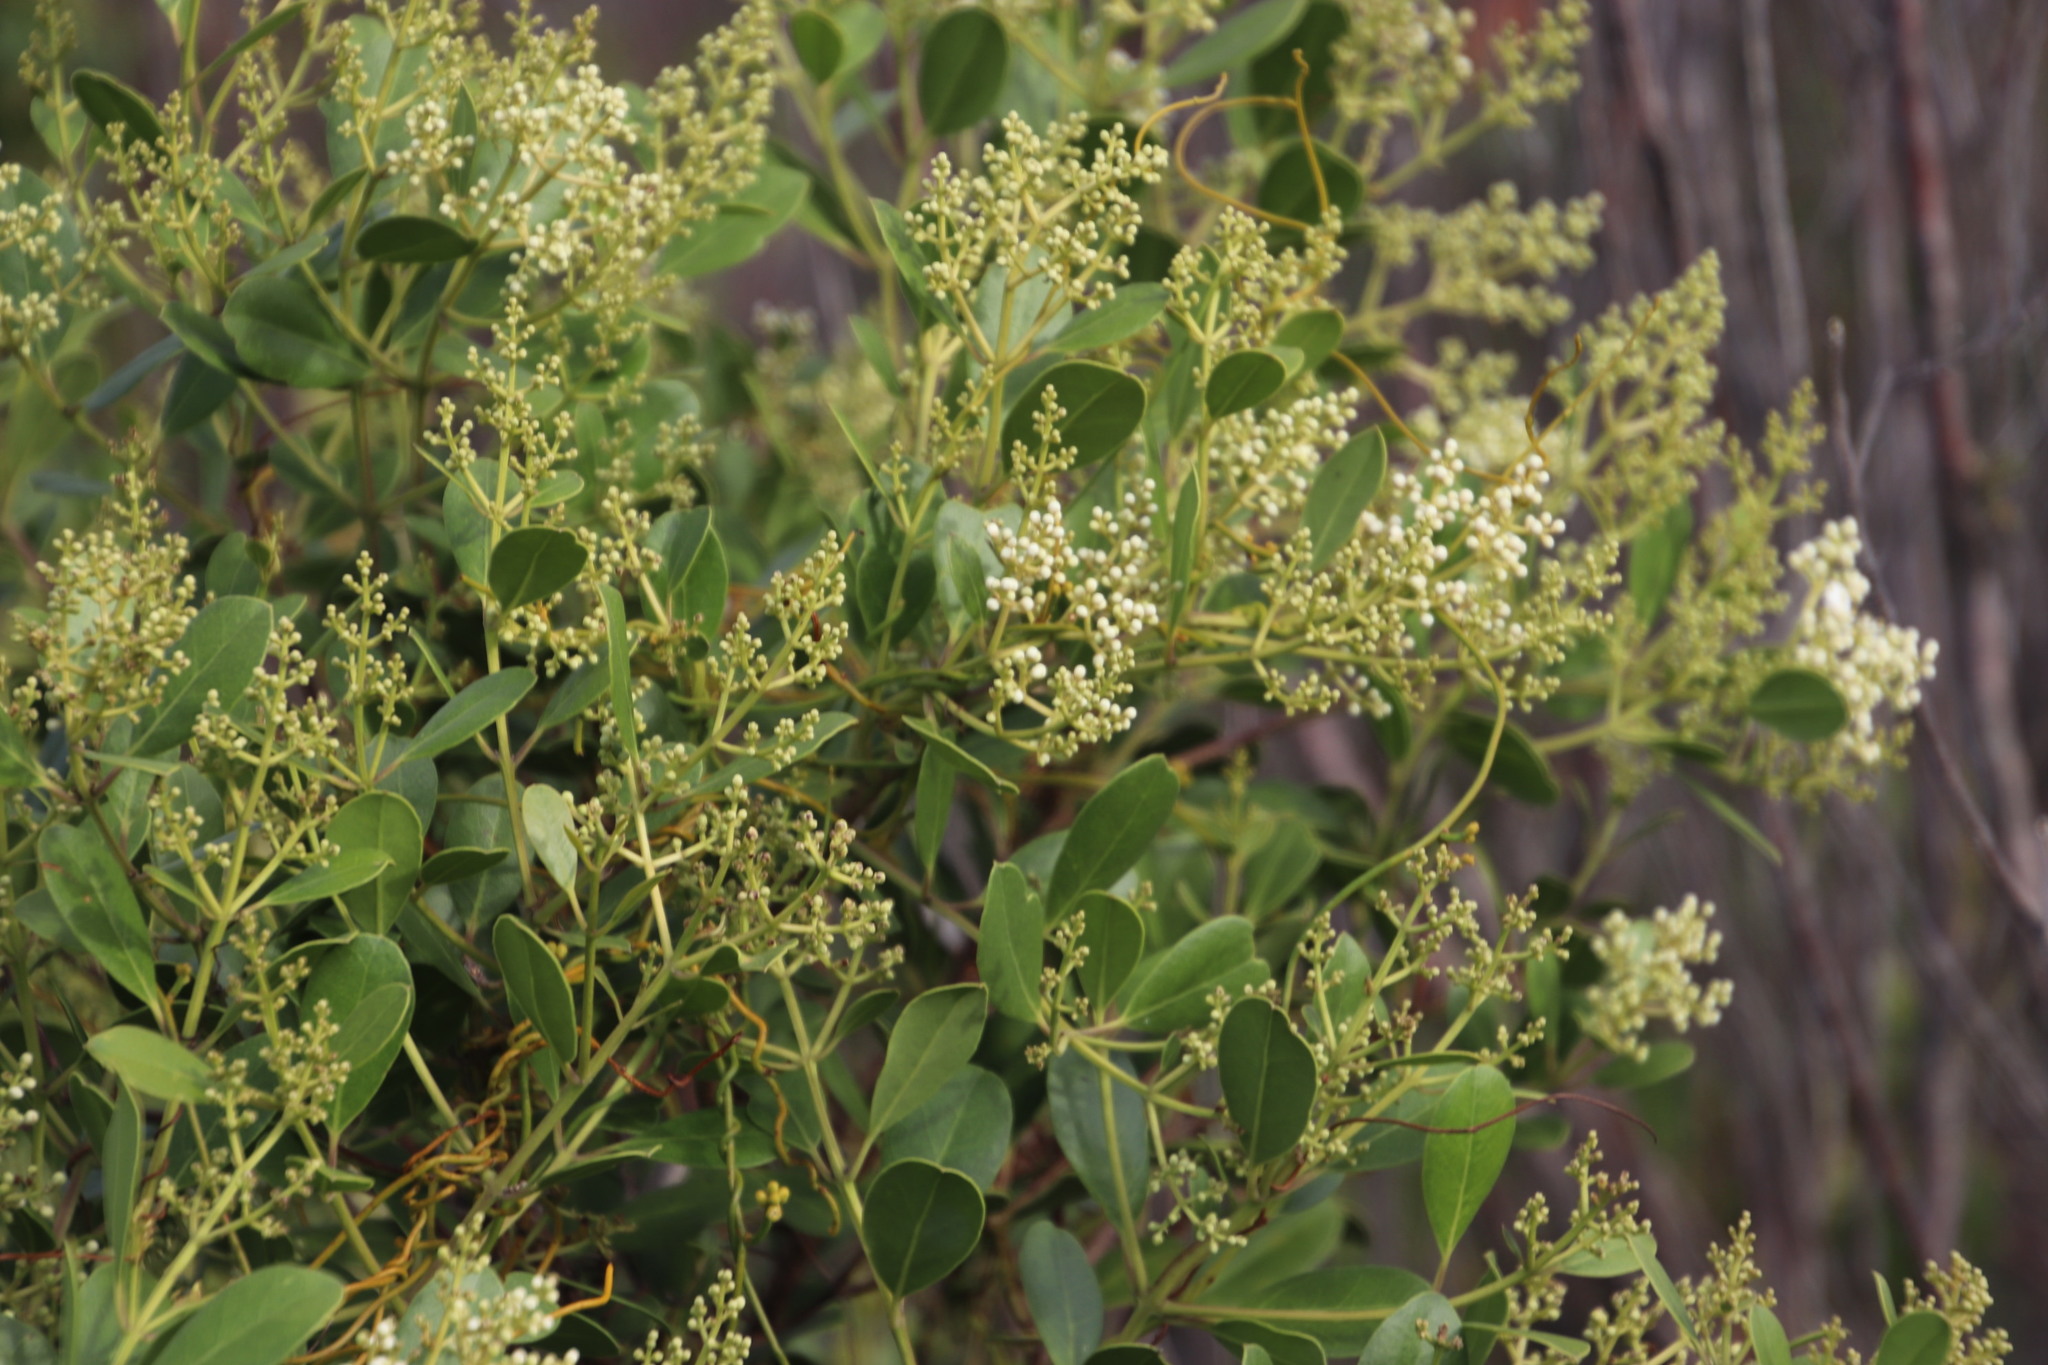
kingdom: Plantae
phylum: Tracheophyta
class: Magnoliopsida
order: Lamiales
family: Oleaceae
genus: Olea
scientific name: Olea capensis
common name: Black ironwood
